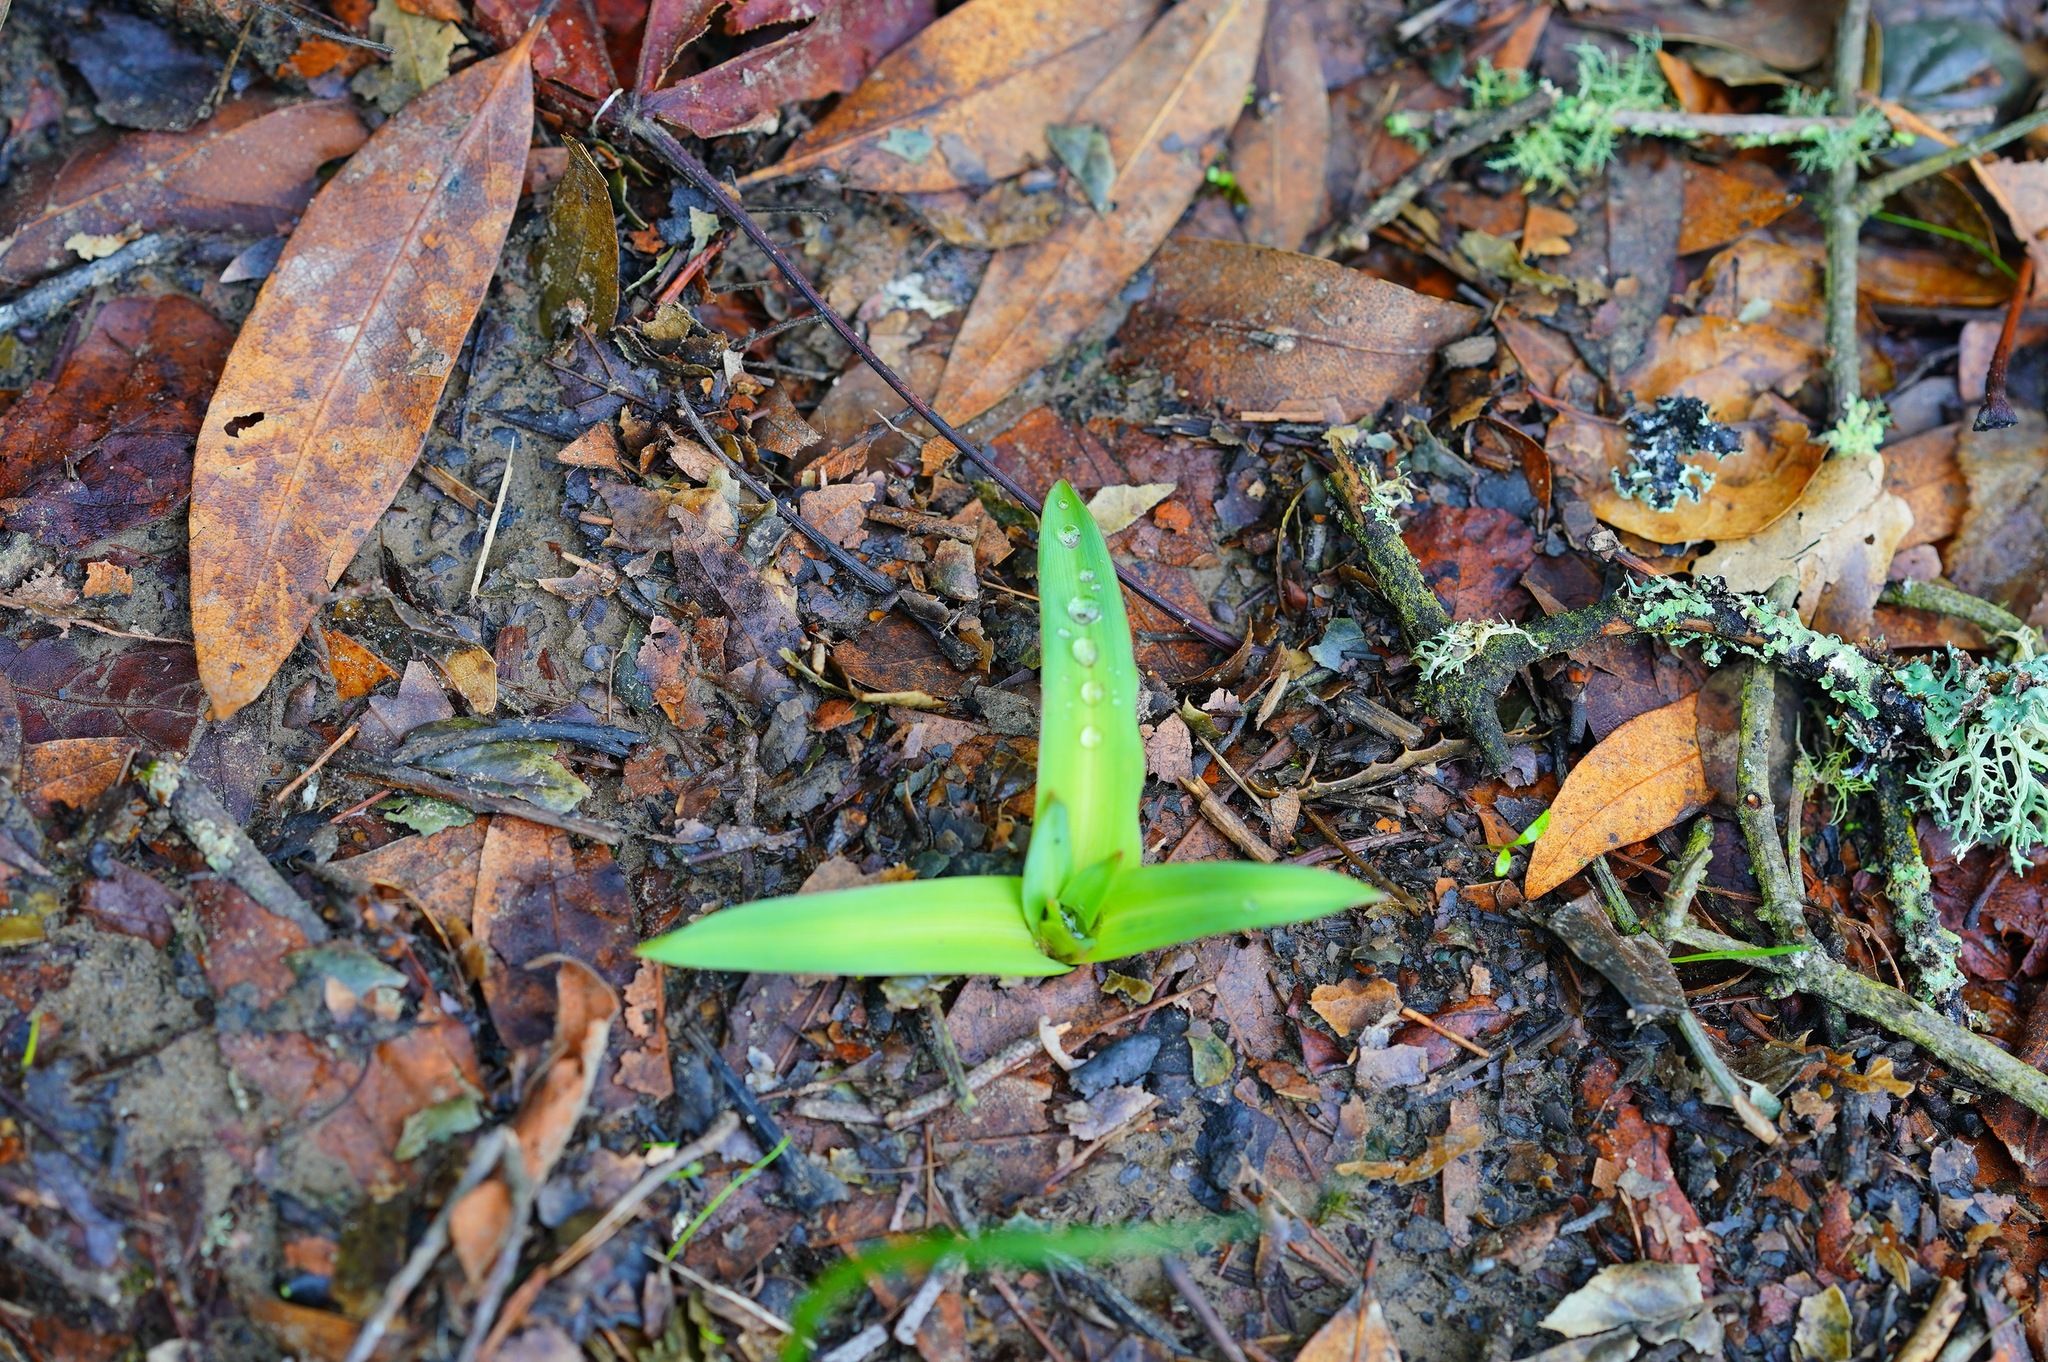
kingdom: Plantae
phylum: Tracheophyta
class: Liliopsida
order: Asparagales
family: Asparagaceae
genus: Chlorogalum
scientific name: Chlorogalum pomeridianum
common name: Amole
